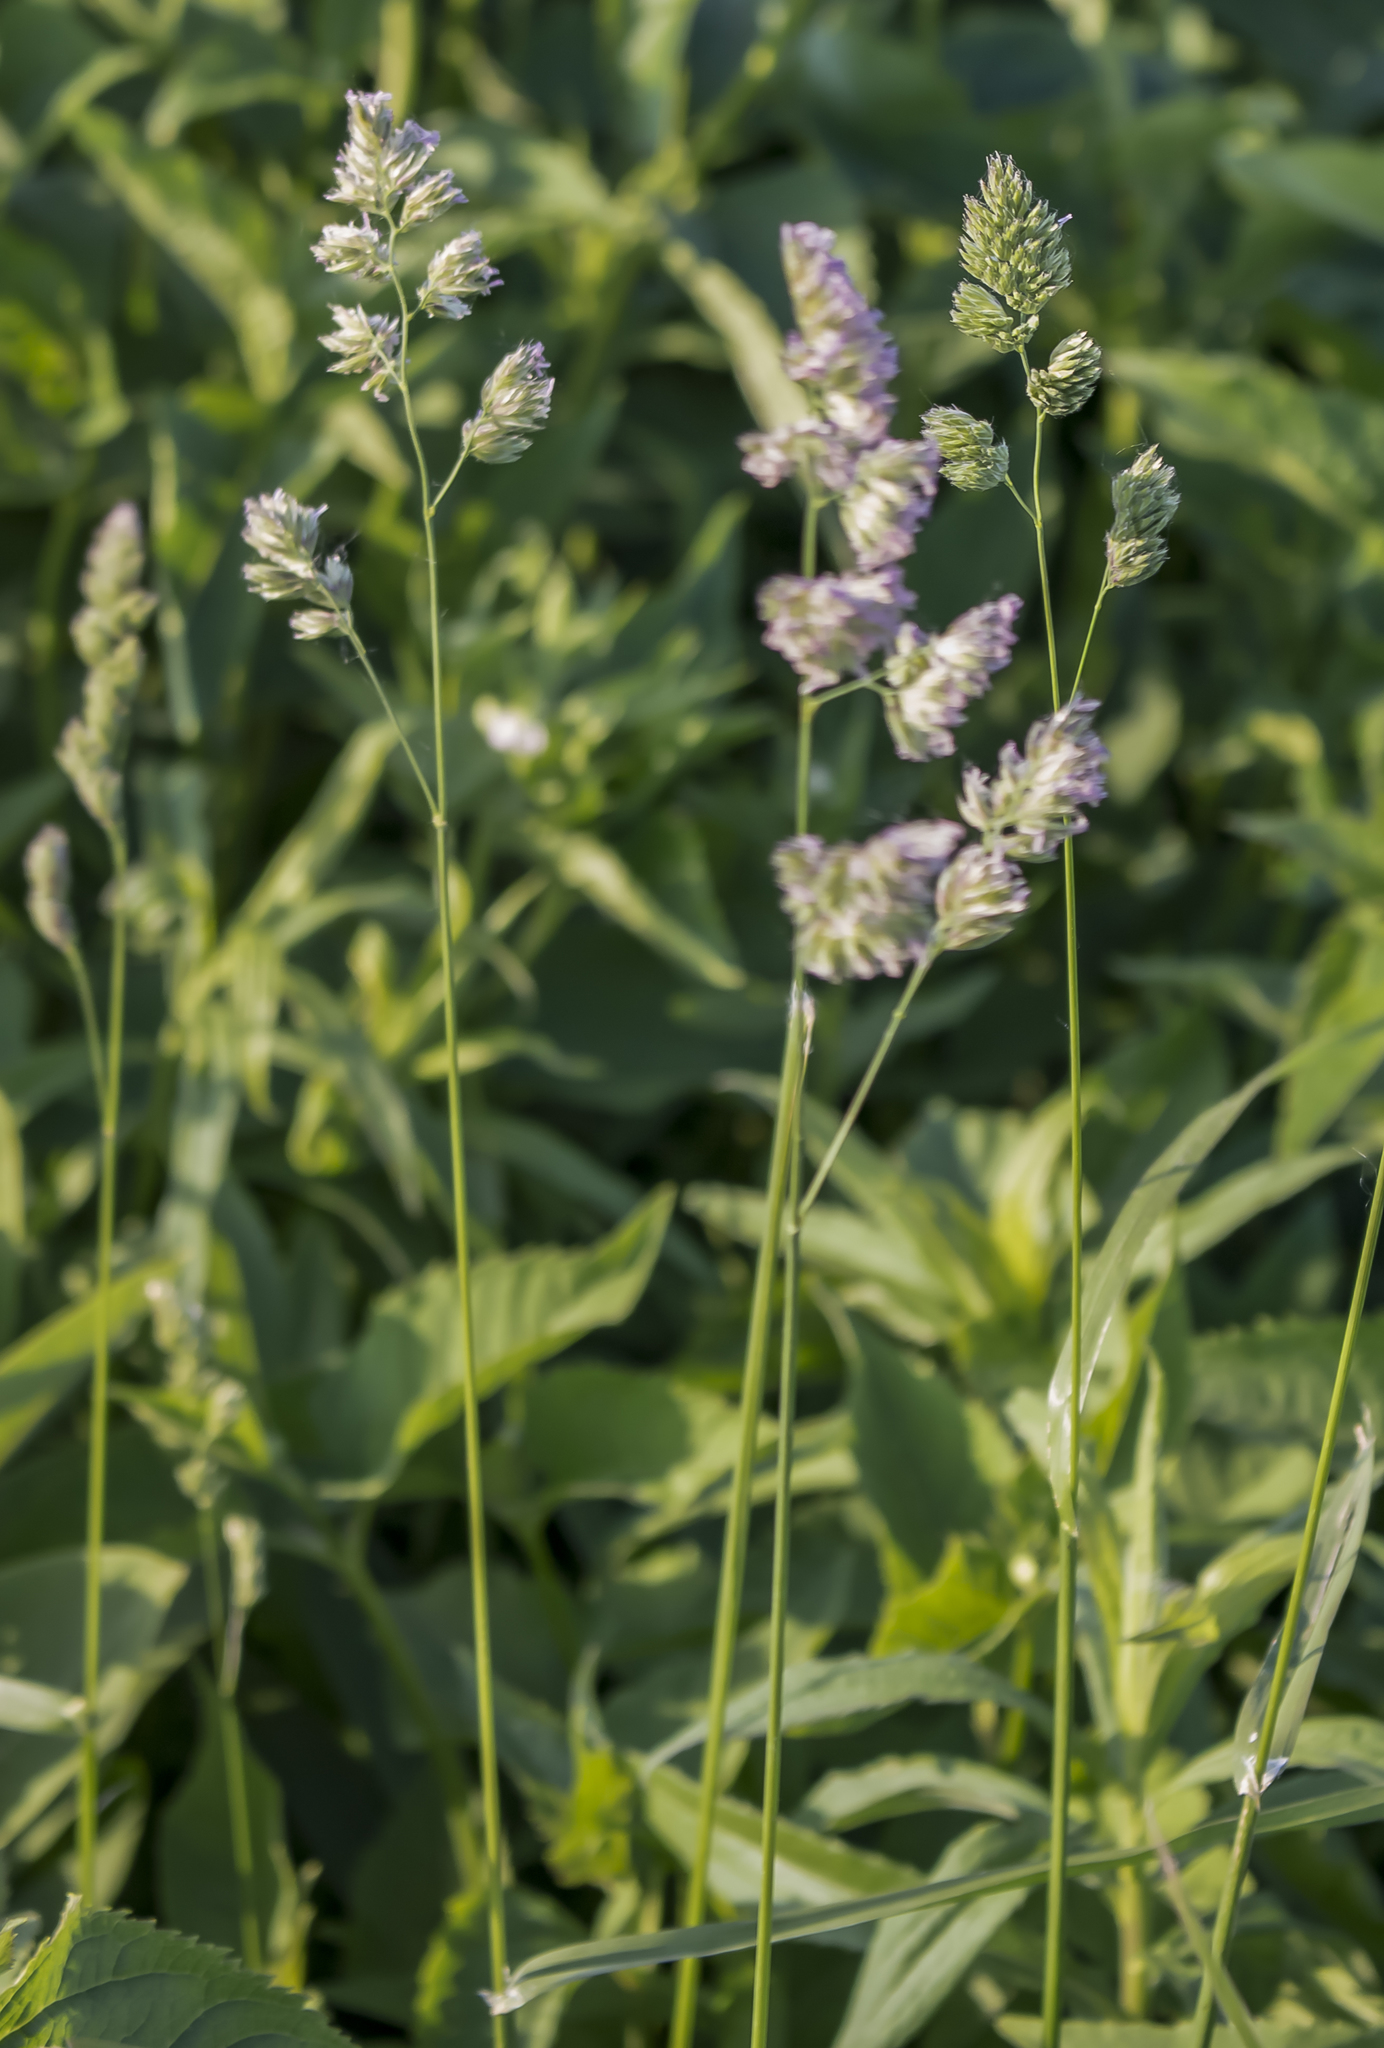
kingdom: Plantae
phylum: Tracheophyta
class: Liliopsida
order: Poales
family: Poaceae
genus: Dactylis
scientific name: Dactylis glomerata
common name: Orchardgrass
